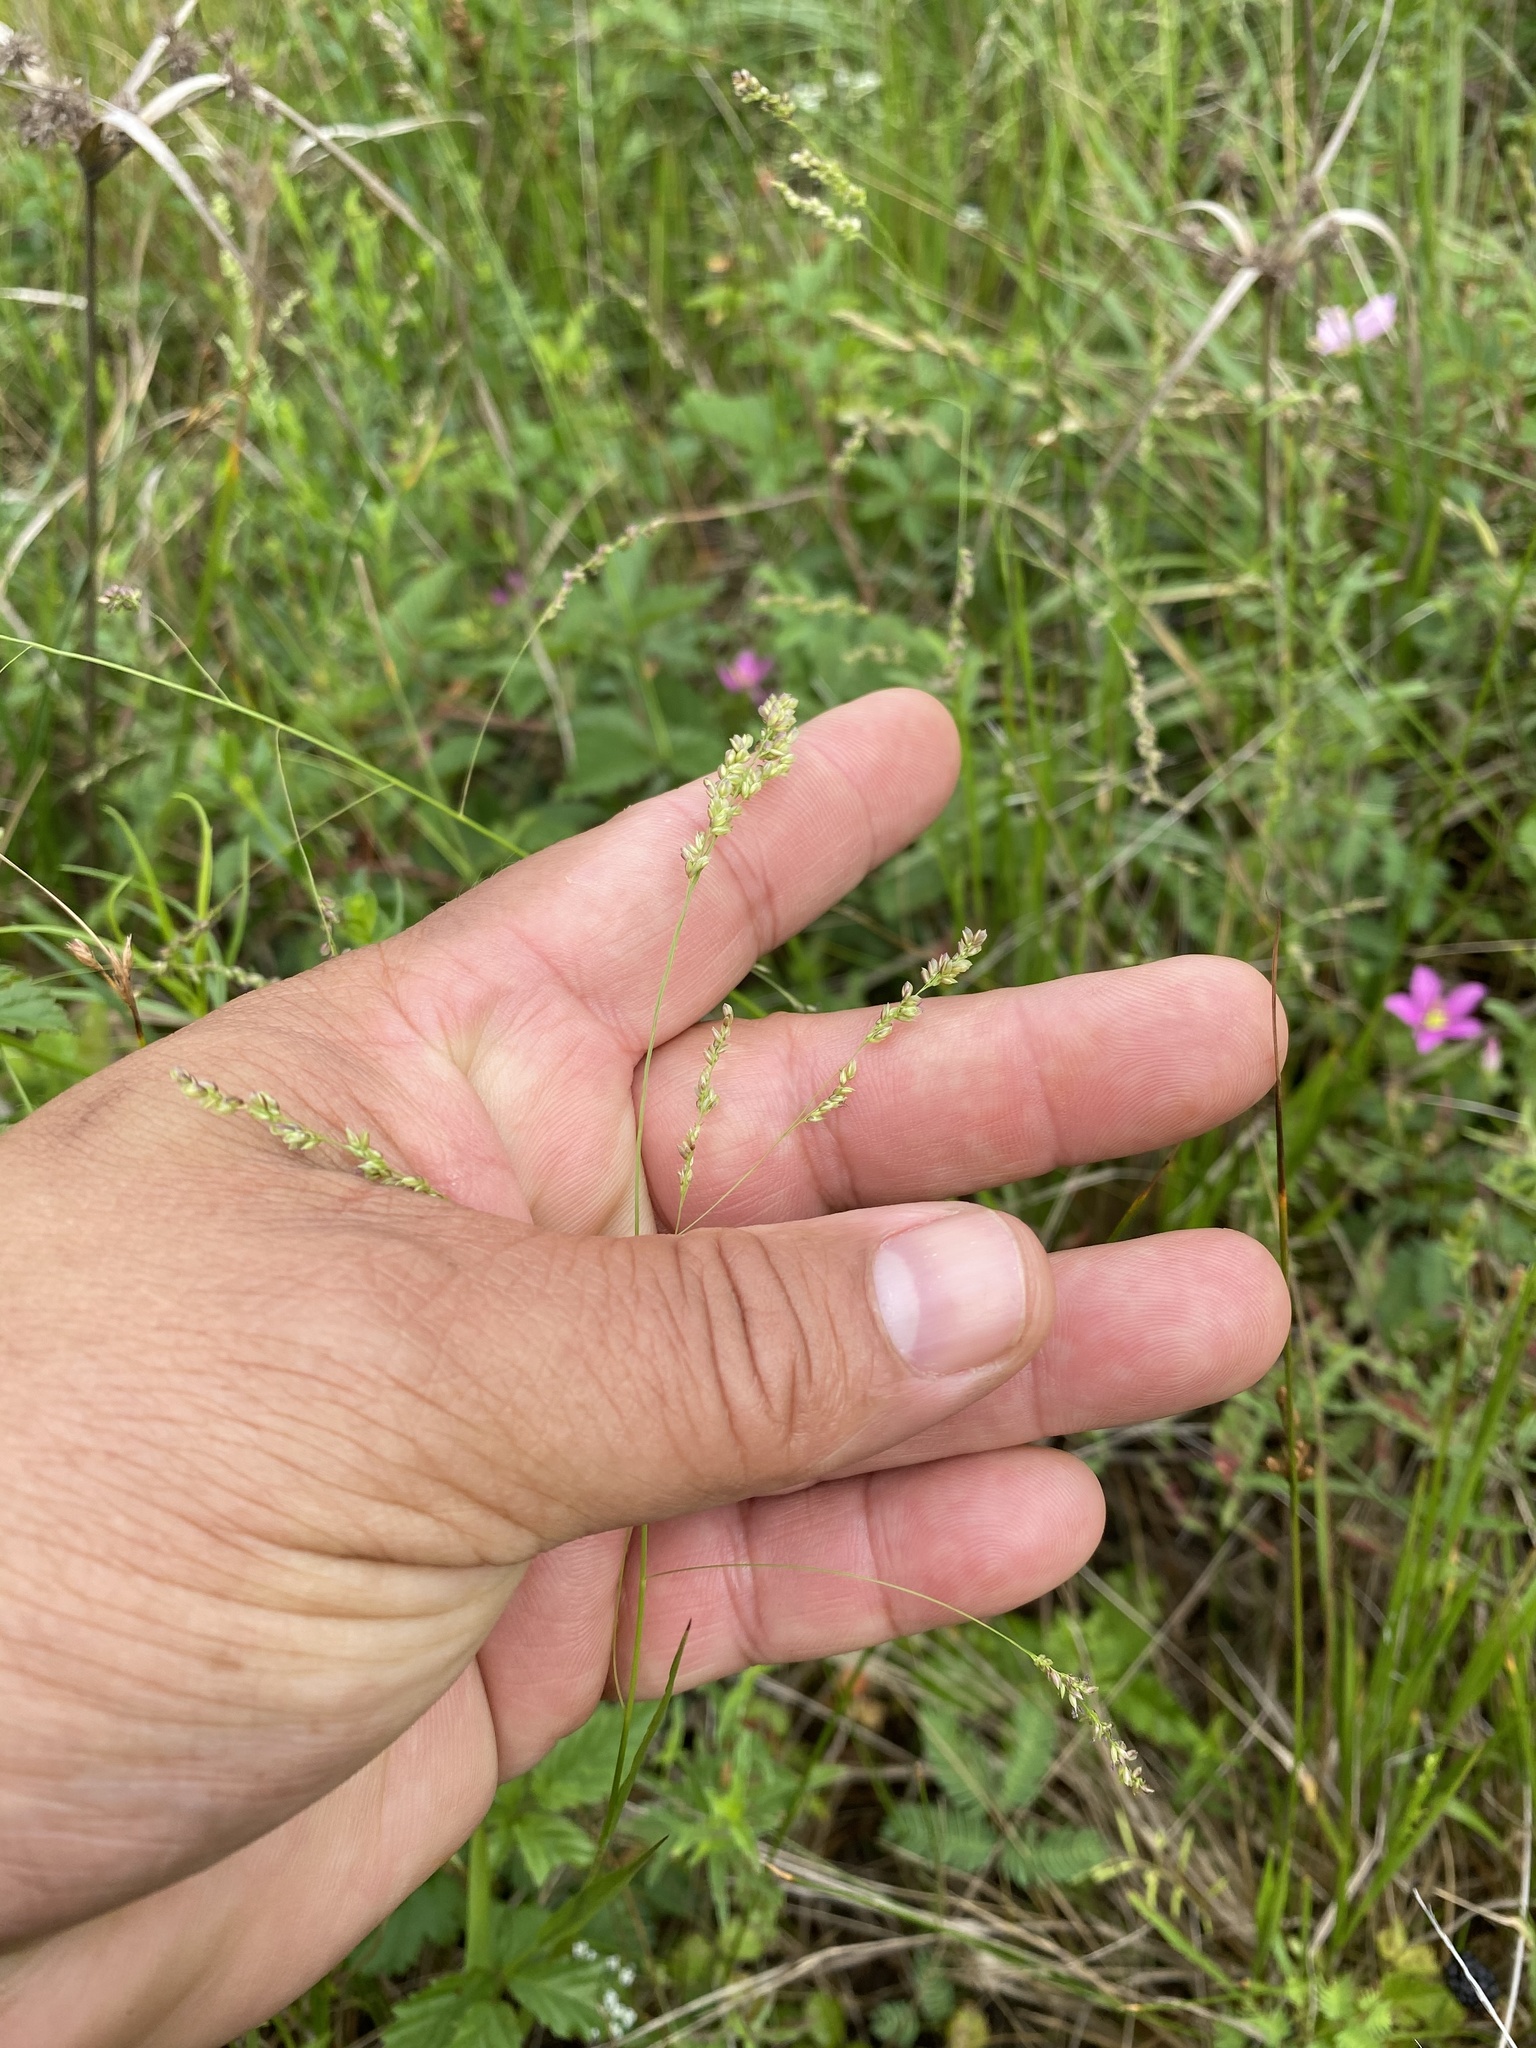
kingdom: Plantae
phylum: Tracheophyta
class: Liliopsida
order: Poales
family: Poaceae
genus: Steinchisma
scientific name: Steinchisma hians
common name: Gaping panic grass
